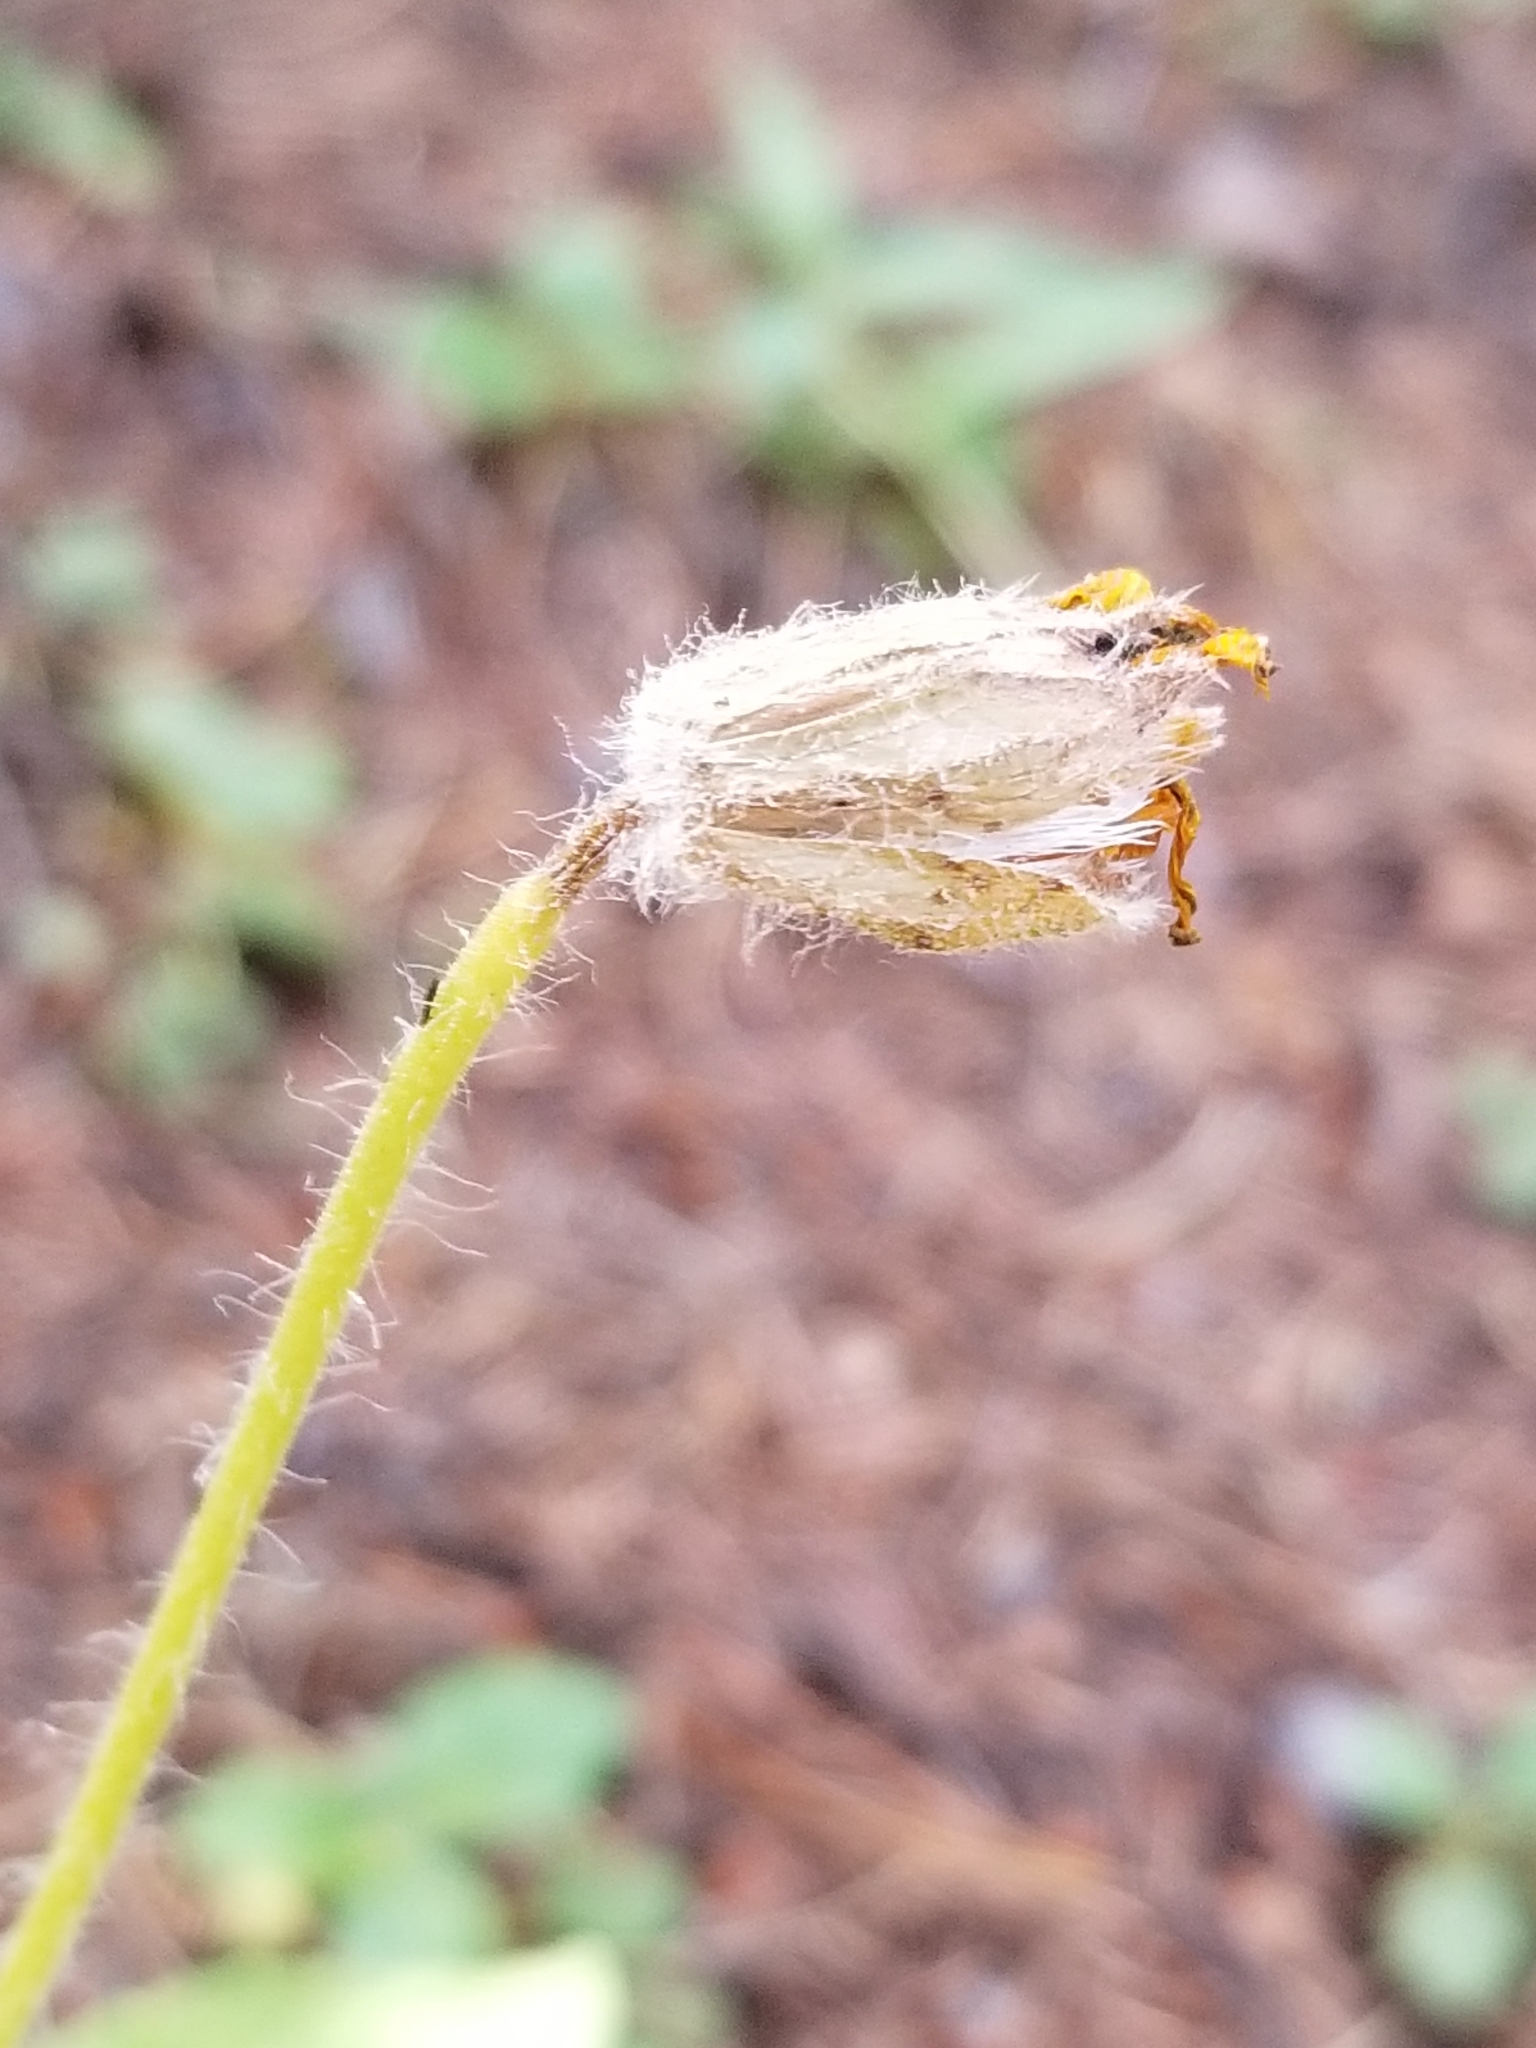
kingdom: Plantae
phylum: Tracheophyta
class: Magnoliopsida
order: Asterales
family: Asteraceae
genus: Arnica
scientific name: Arnica cordifolia
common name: Heart-leaf arnica
